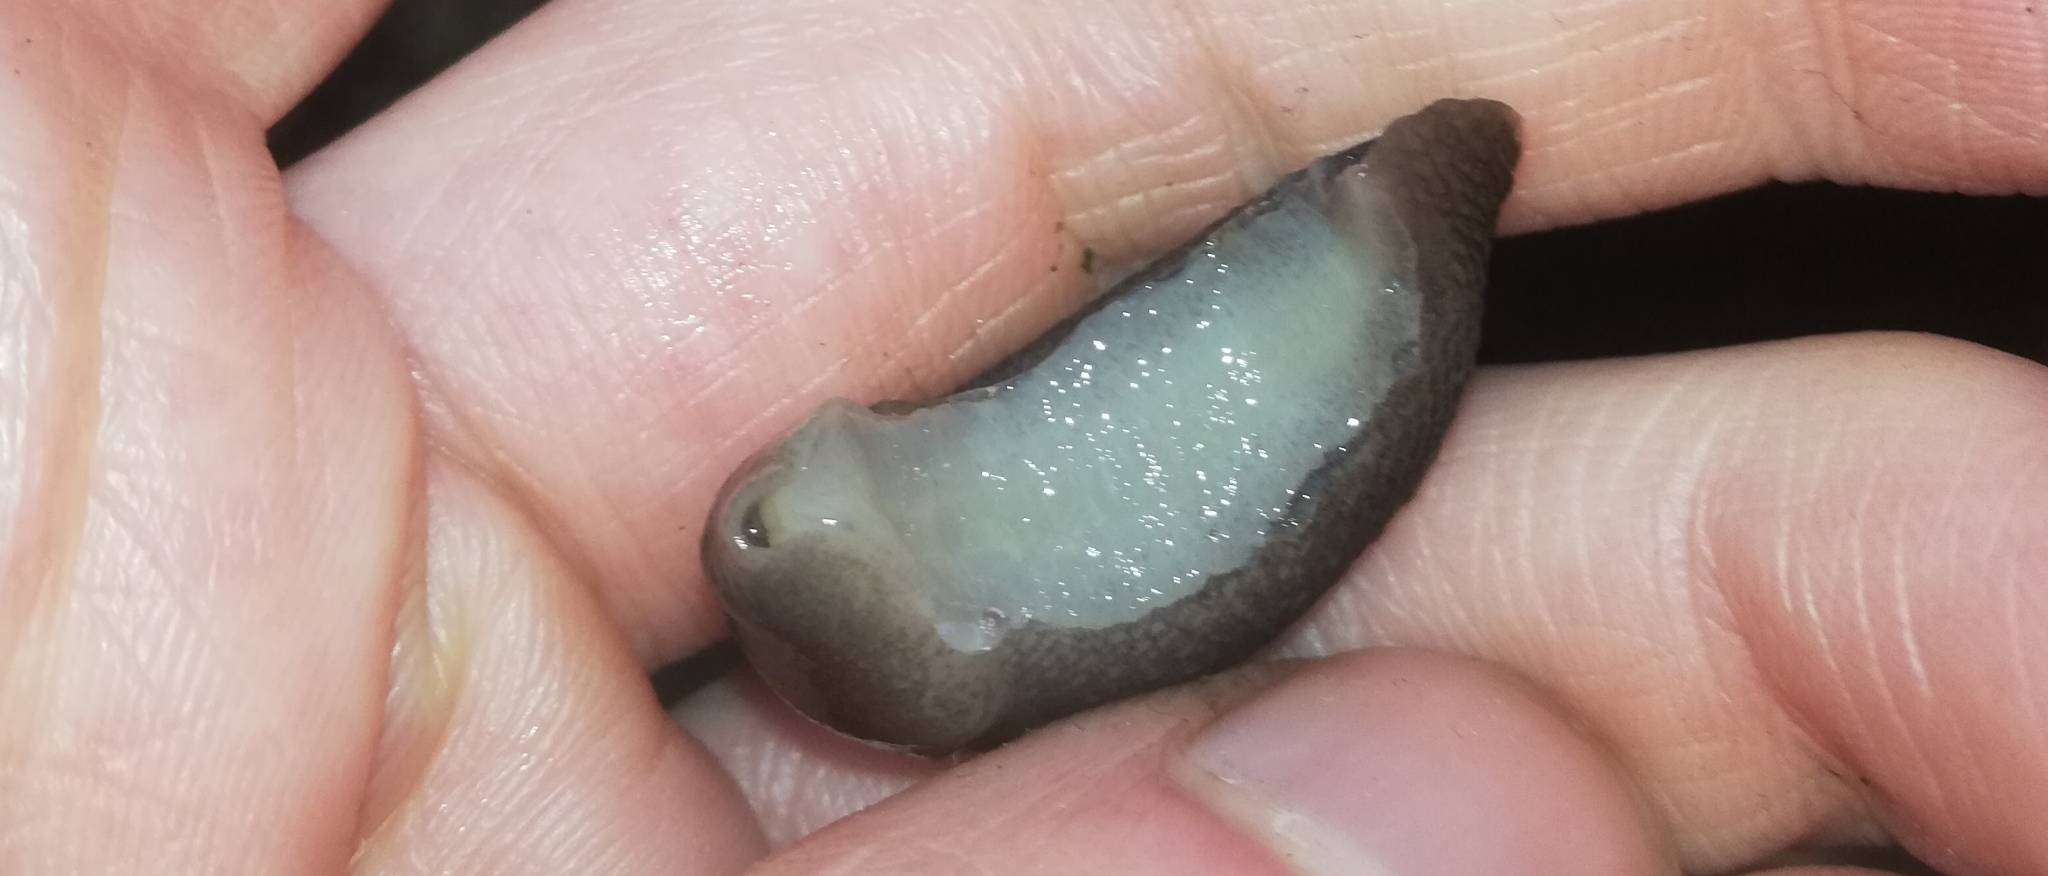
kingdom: Animalia
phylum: Mollusca
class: Gastropoda
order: Stylommatophora
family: Limacidae
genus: Limax
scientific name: Limax cinereoniger
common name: Ash-black slug
